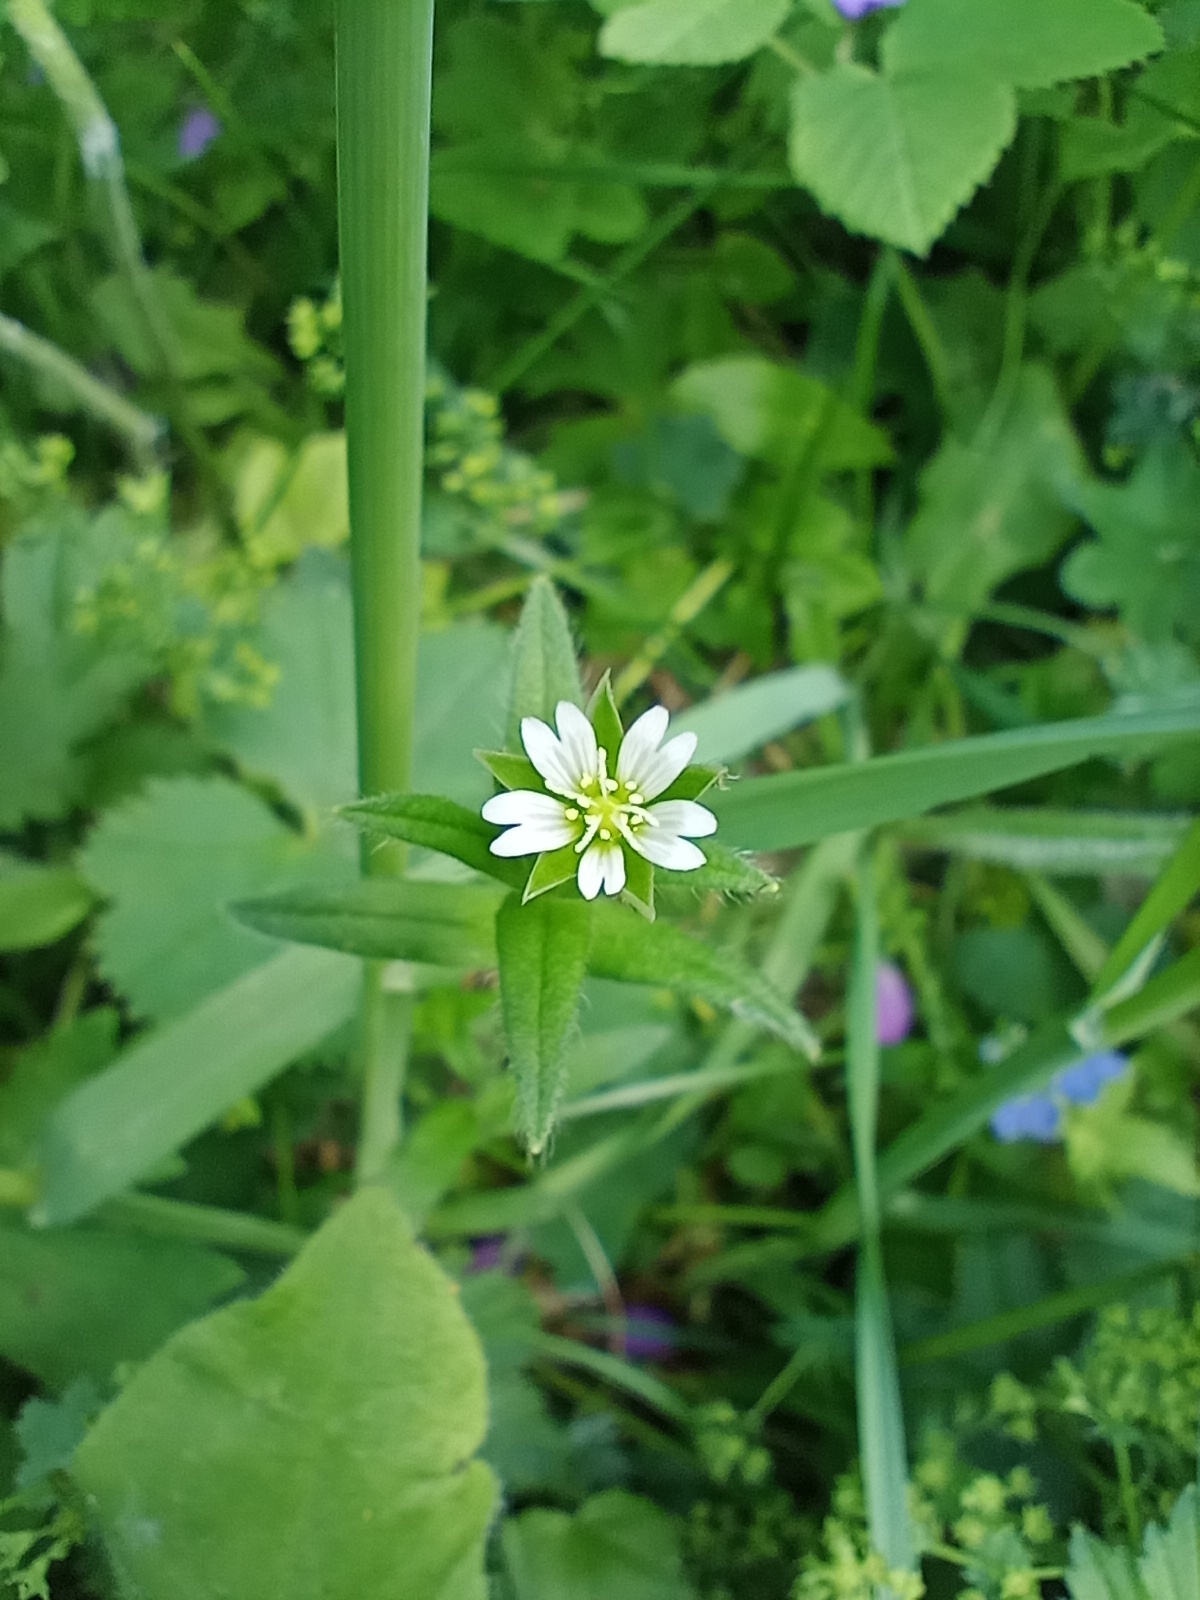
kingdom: Plantae
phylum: Tracheophyta
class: Magnoliopsida
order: Caryophyllales
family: Caryophyllaceae
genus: Cerastium
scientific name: Cerastium holosteoides
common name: Big chickweed
